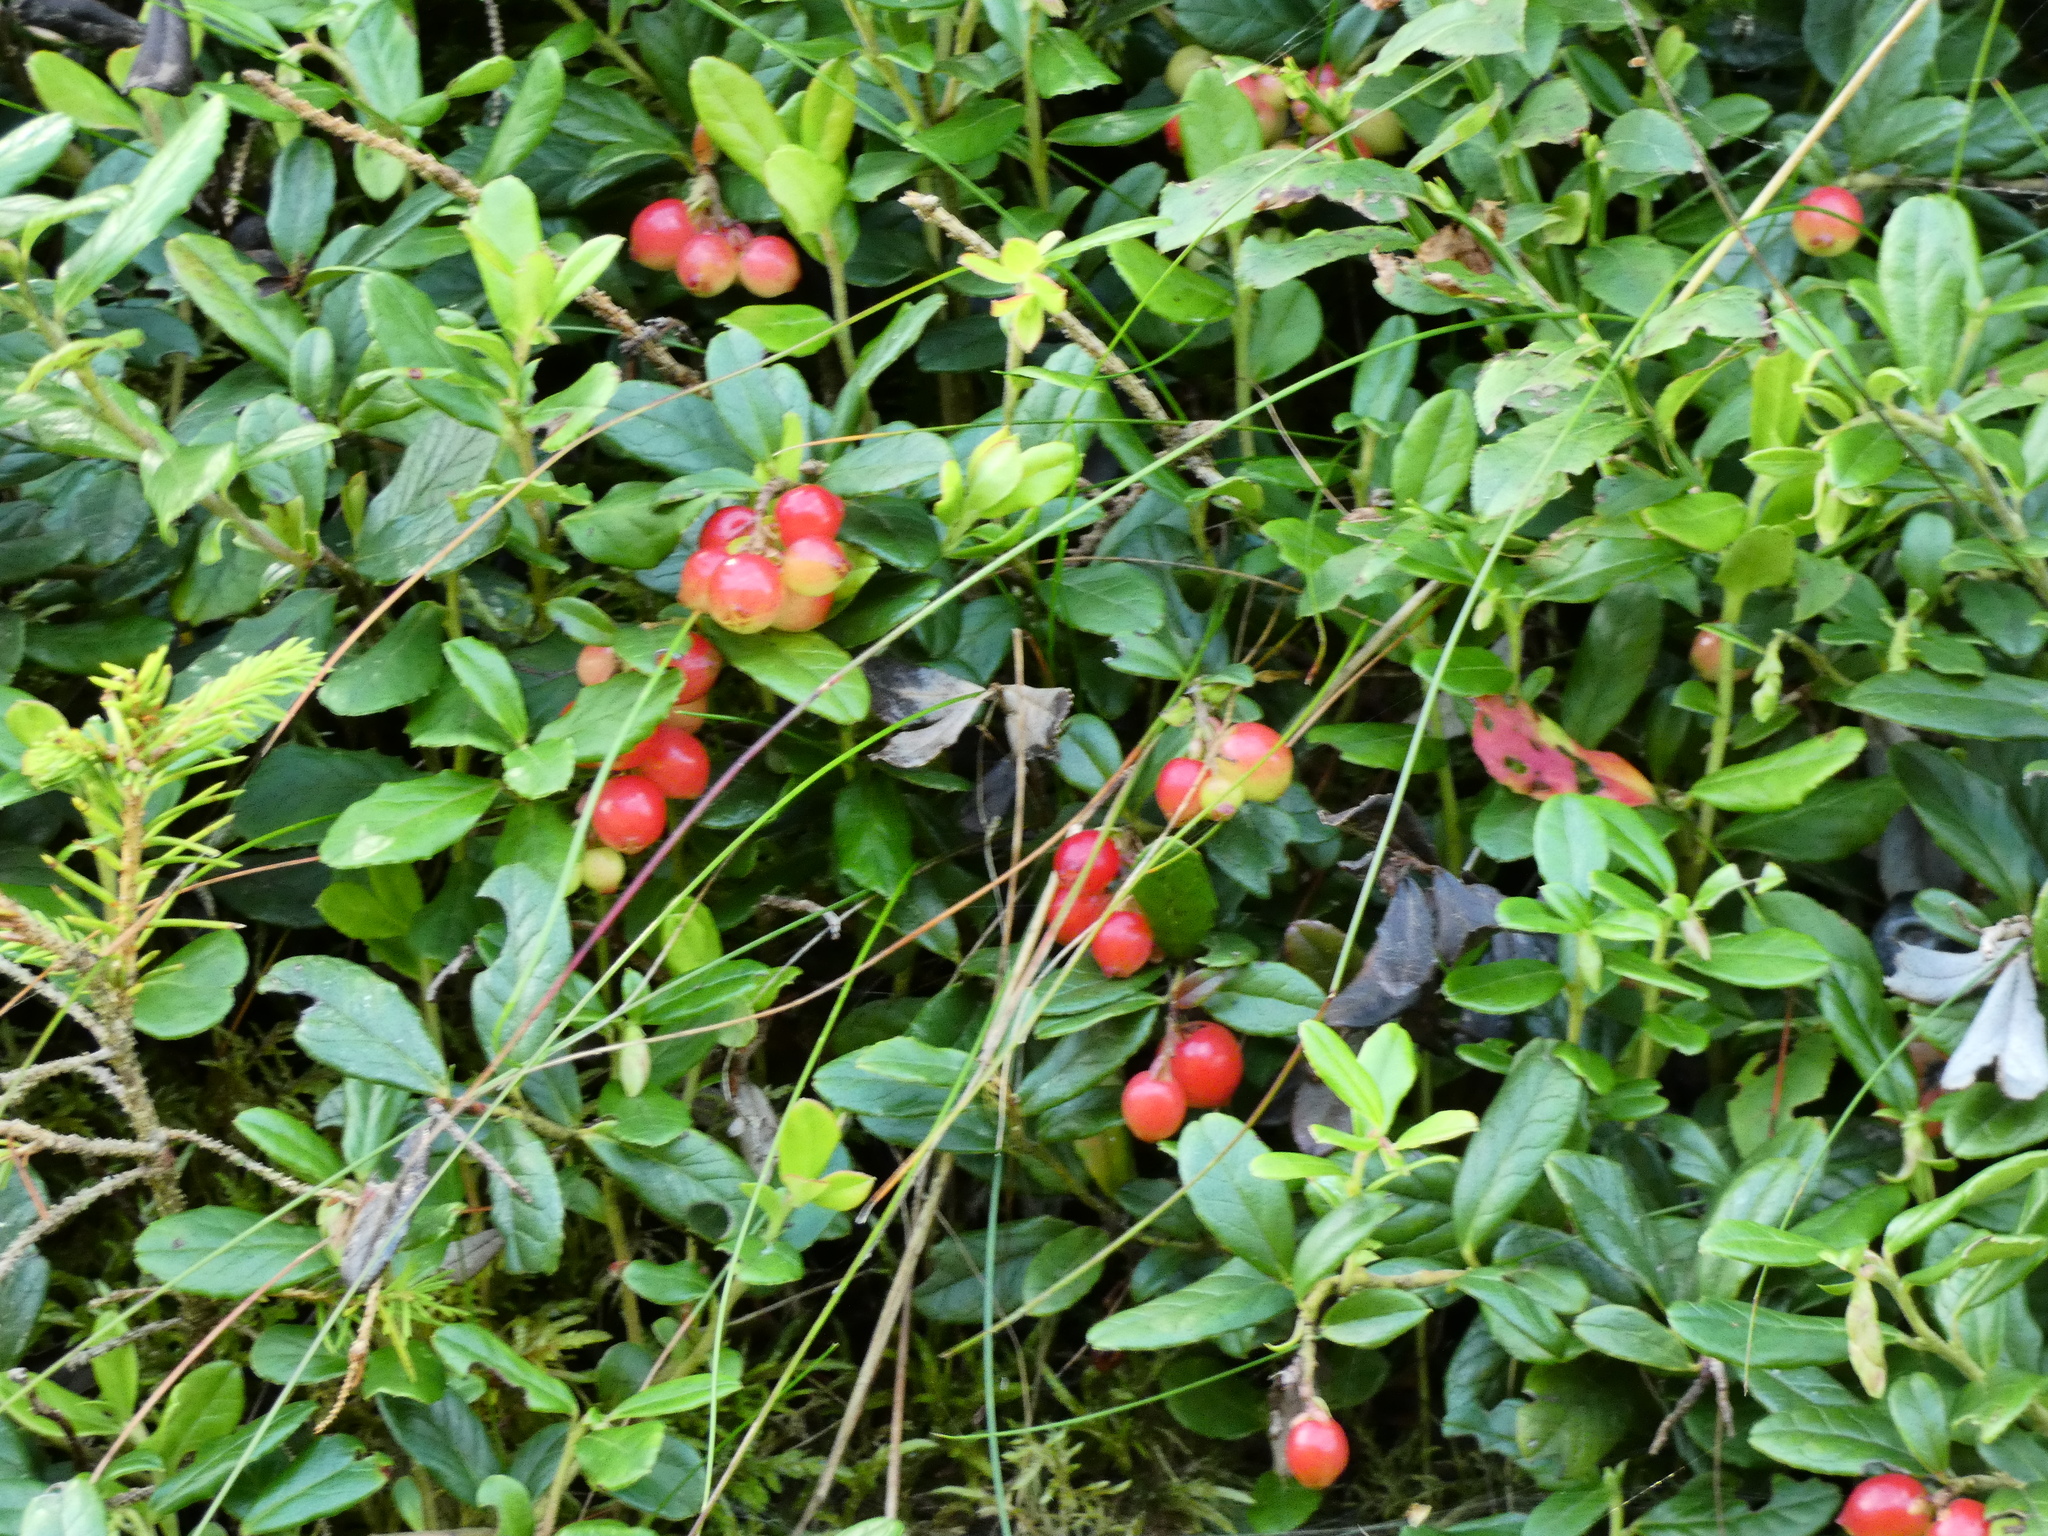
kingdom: Plantae
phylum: Tracheophyta
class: Magnoliopsida
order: Ericales
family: Ericaceae
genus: Vaccinium
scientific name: Vaccinium vitis-idaea
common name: Cowberry
